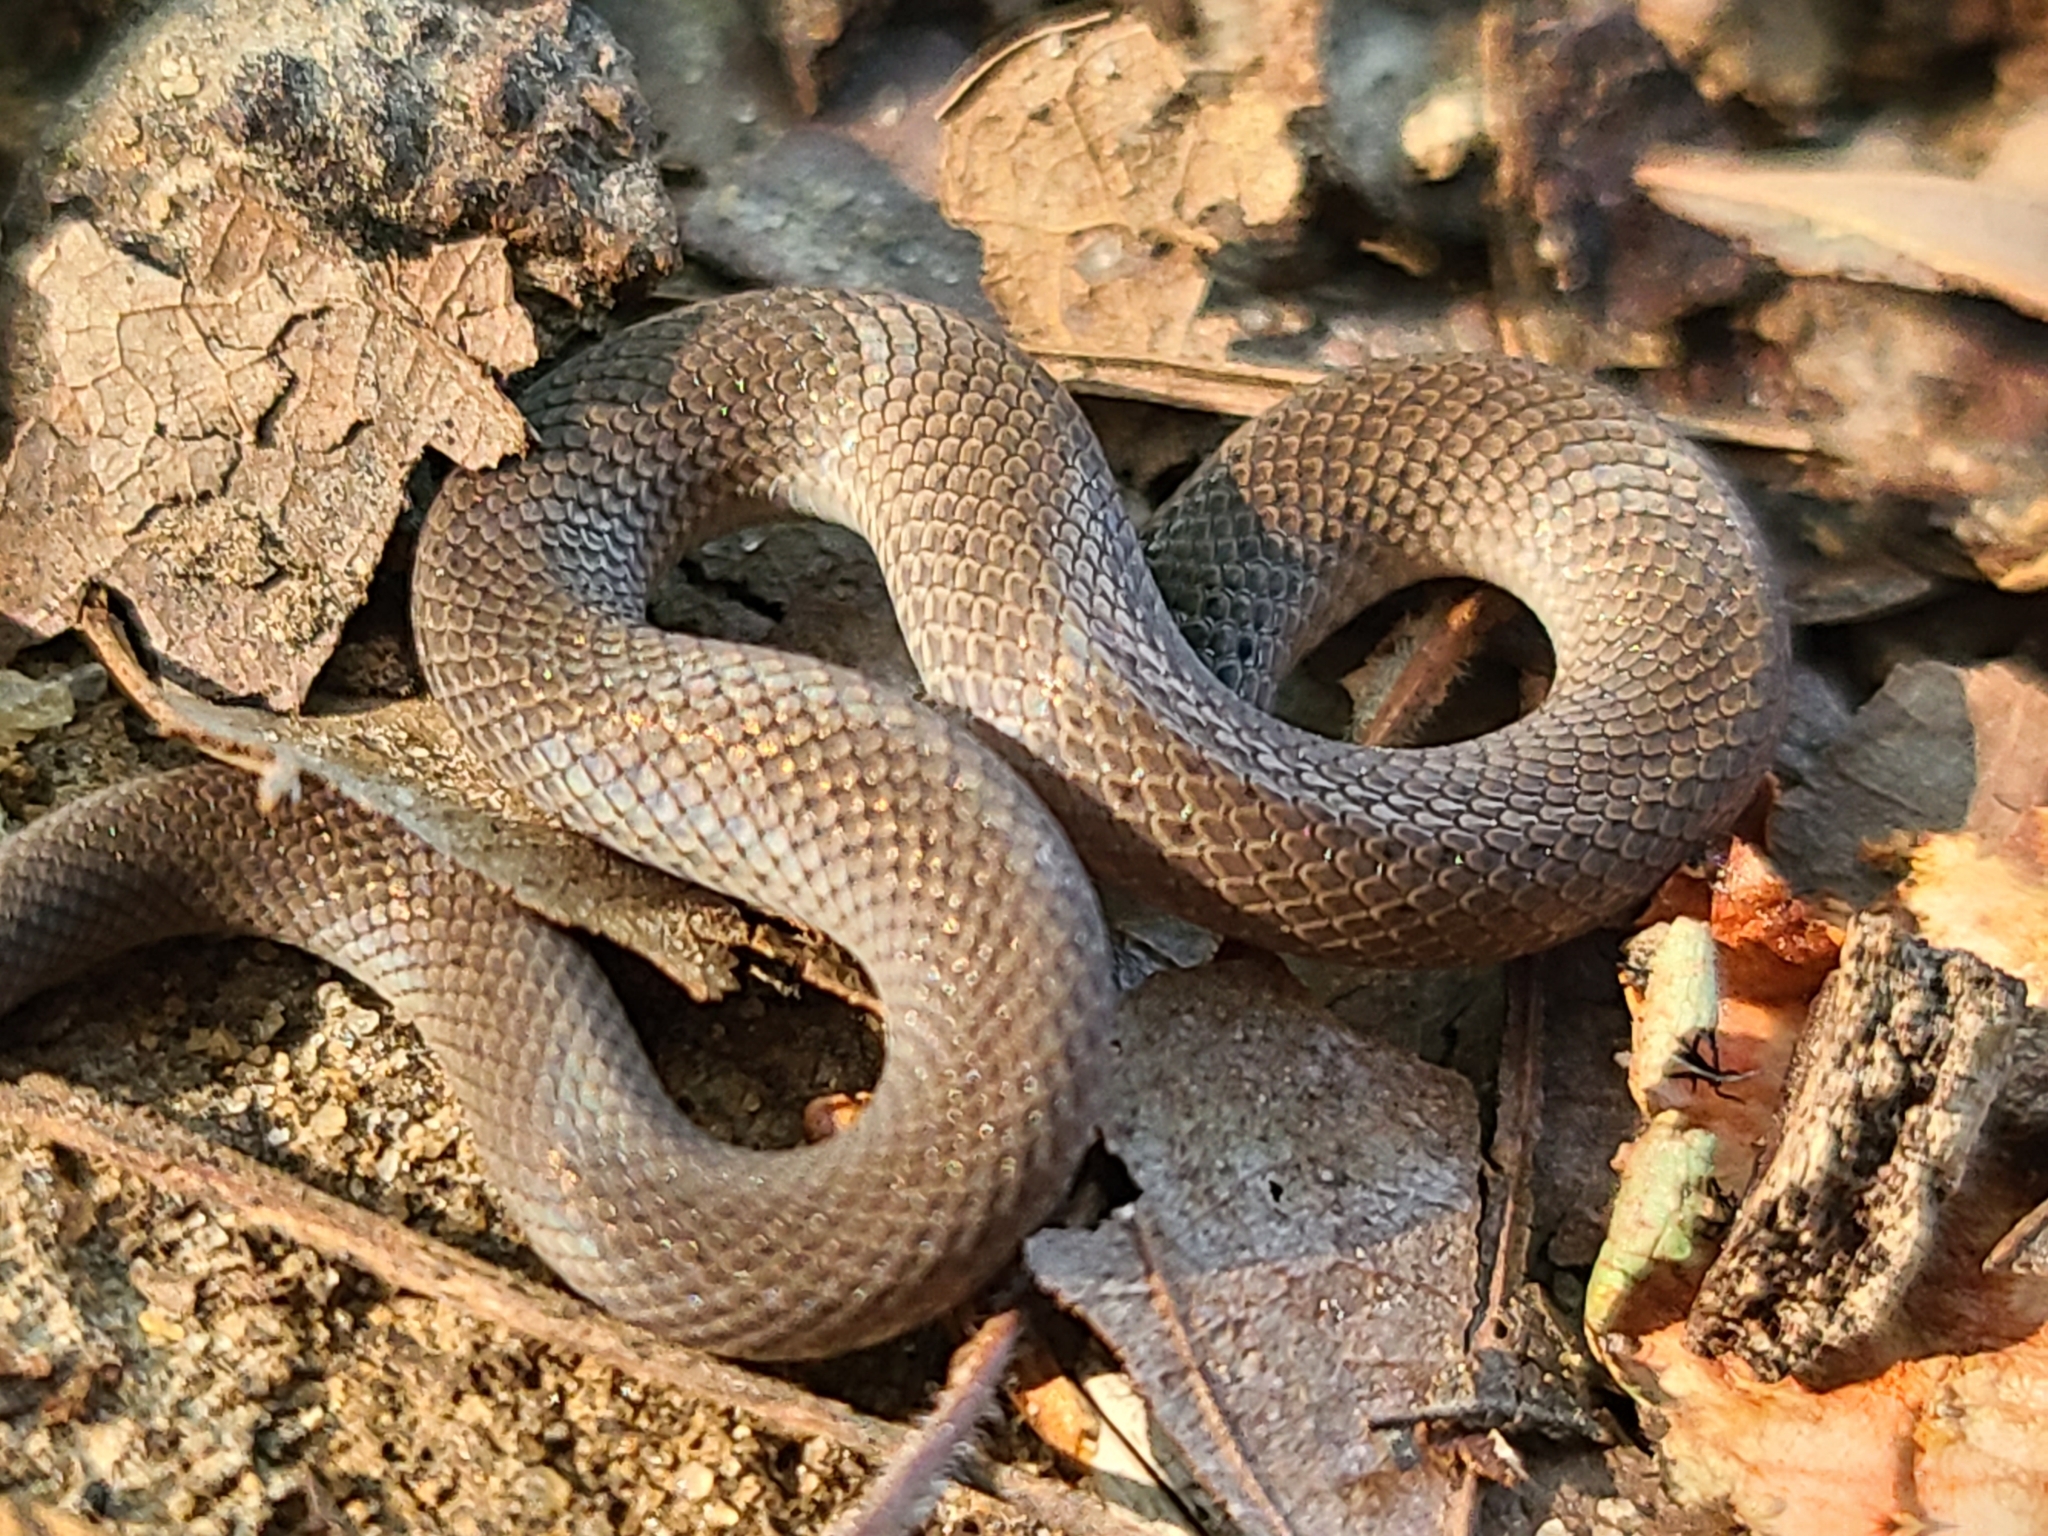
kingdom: Animalia
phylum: Chordata
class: Squamata
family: Colubridae
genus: Virginia
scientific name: Virginia valeriae
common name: Smooth earth snake
